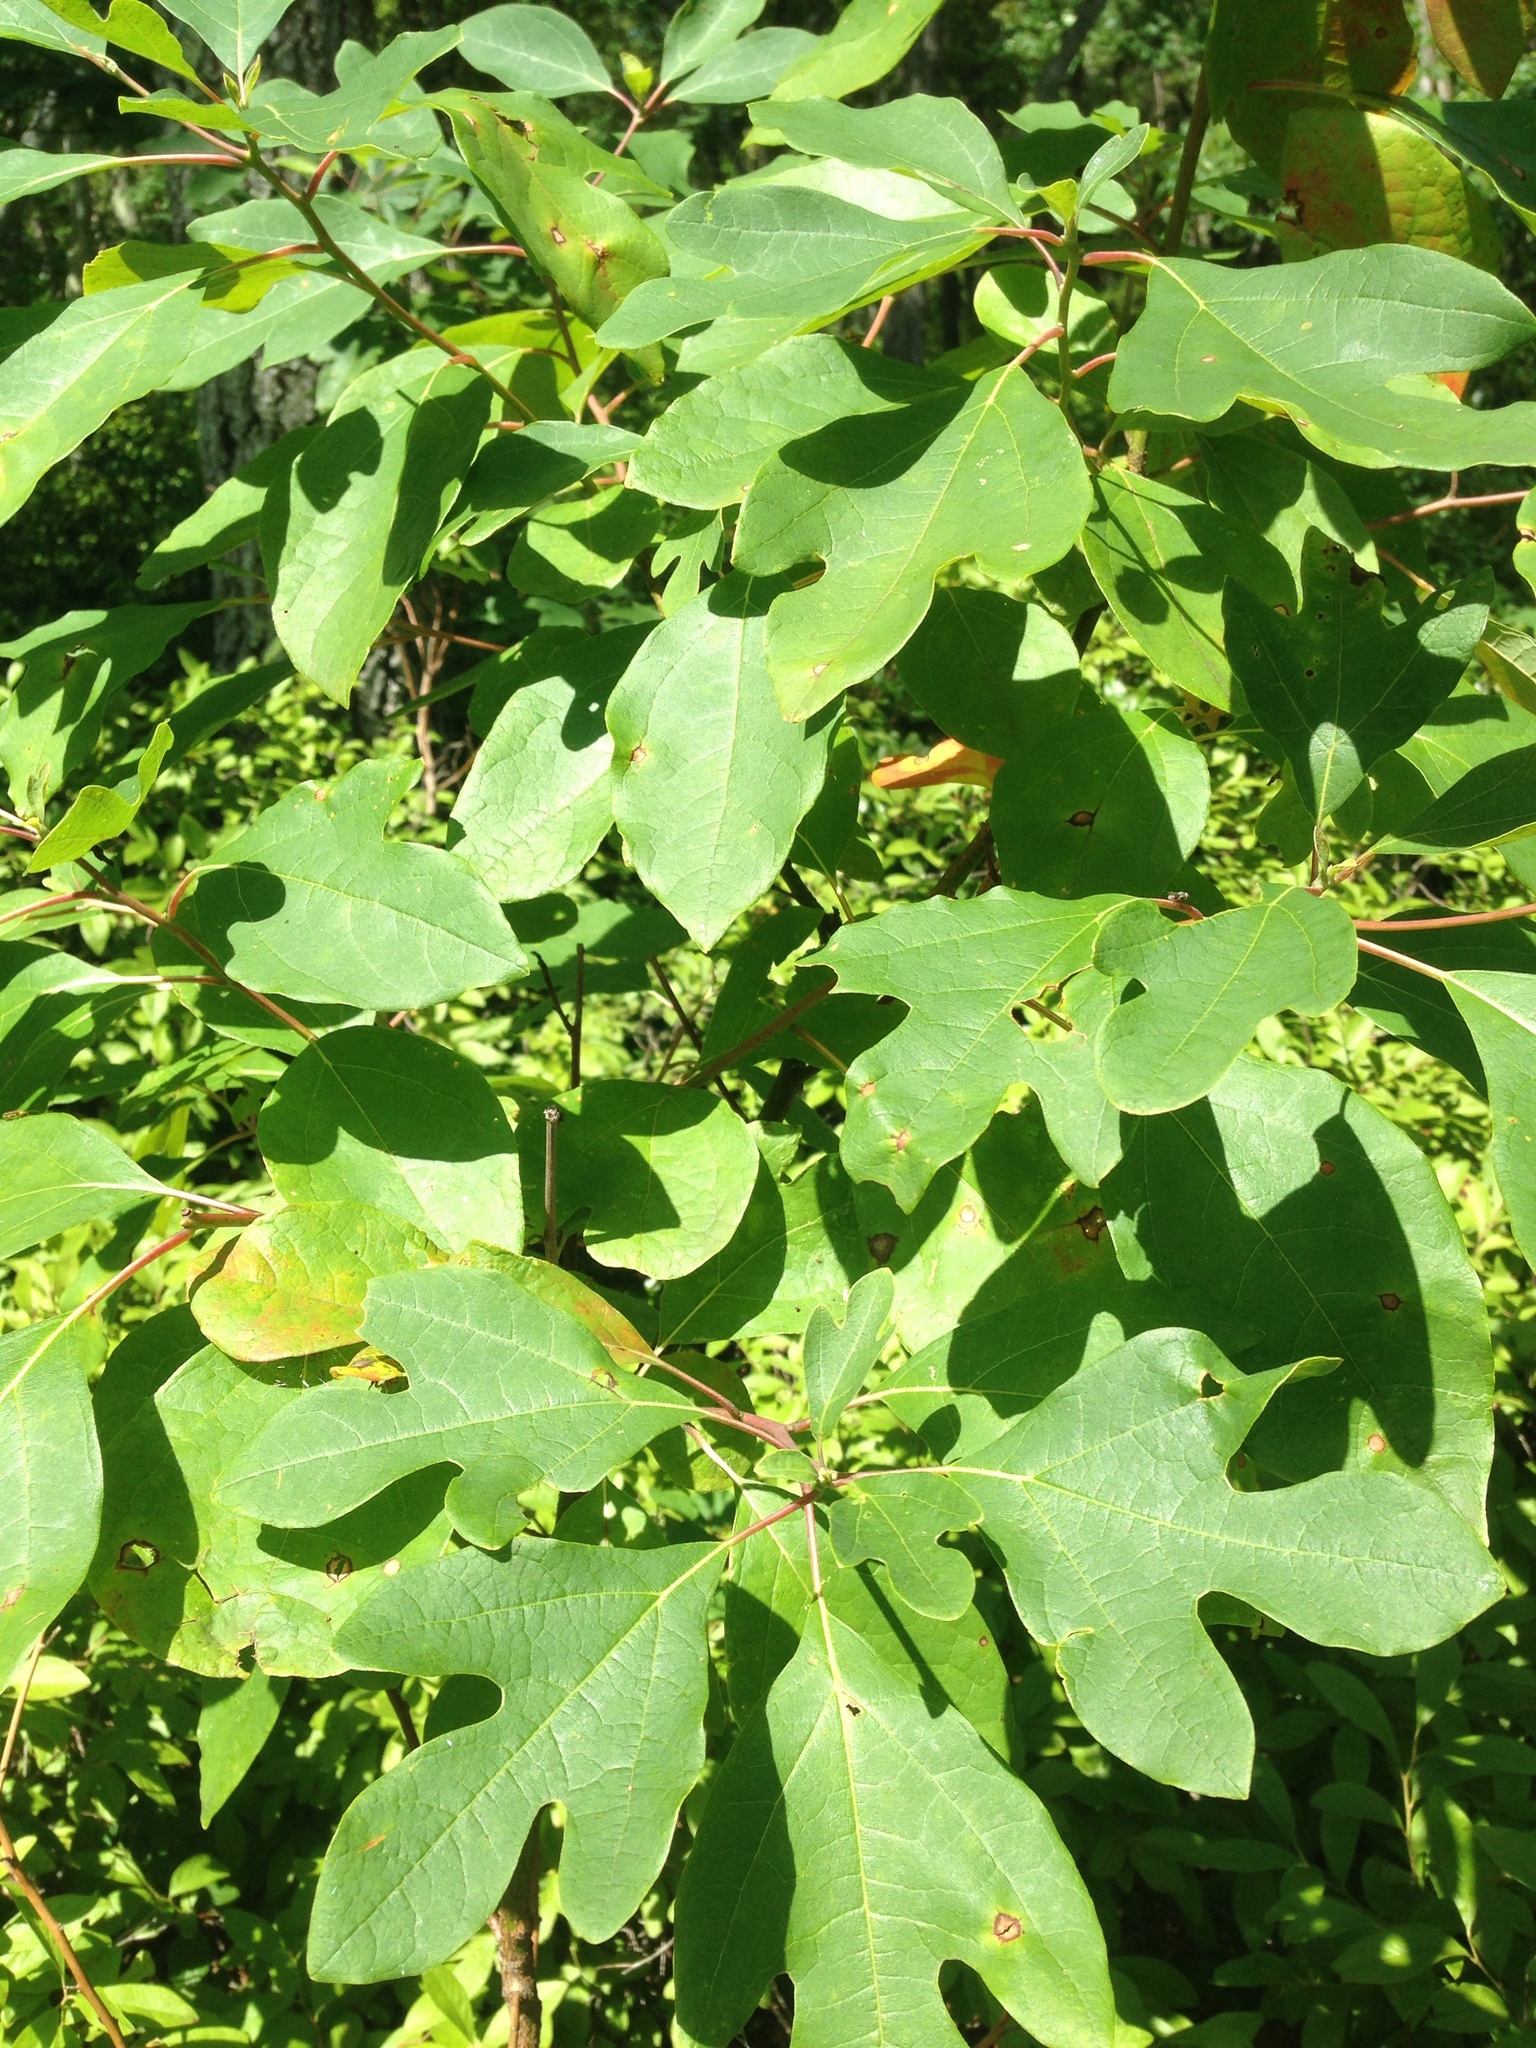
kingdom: Plantae
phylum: Tracheophyta
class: Magnoliopsida
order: Laurales
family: Lauraceae
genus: Sassafras
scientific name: Sassafras albidum
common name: Sassafras
